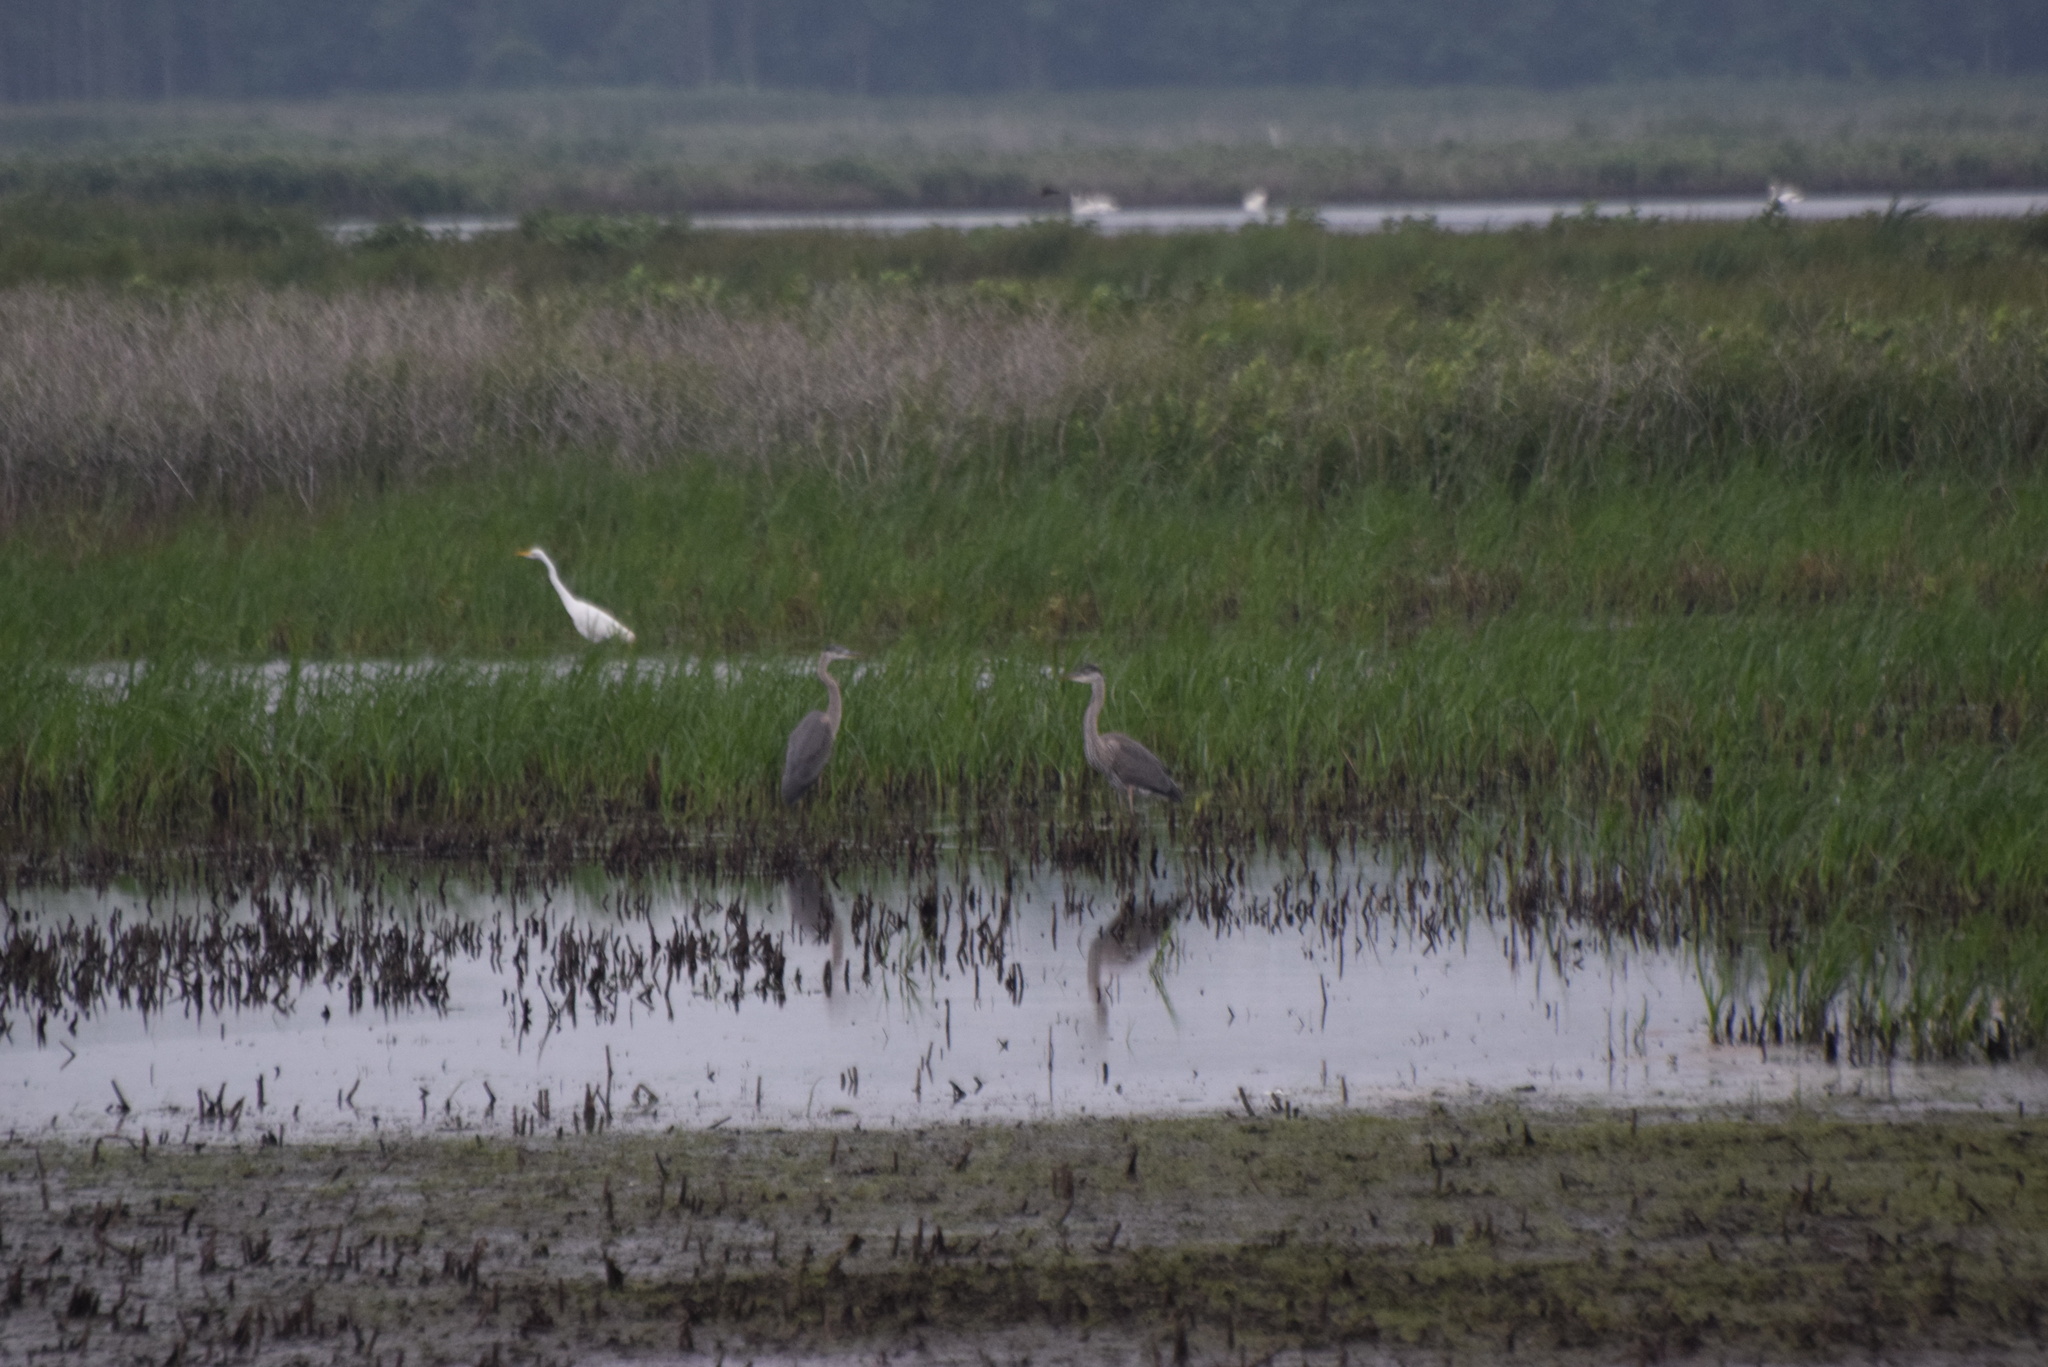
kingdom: Animalia
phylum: Chordata
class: Aves
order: Pelecaniformes
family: Ardeidae
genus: Ardea
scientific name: Ardea alba
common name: Great egret
